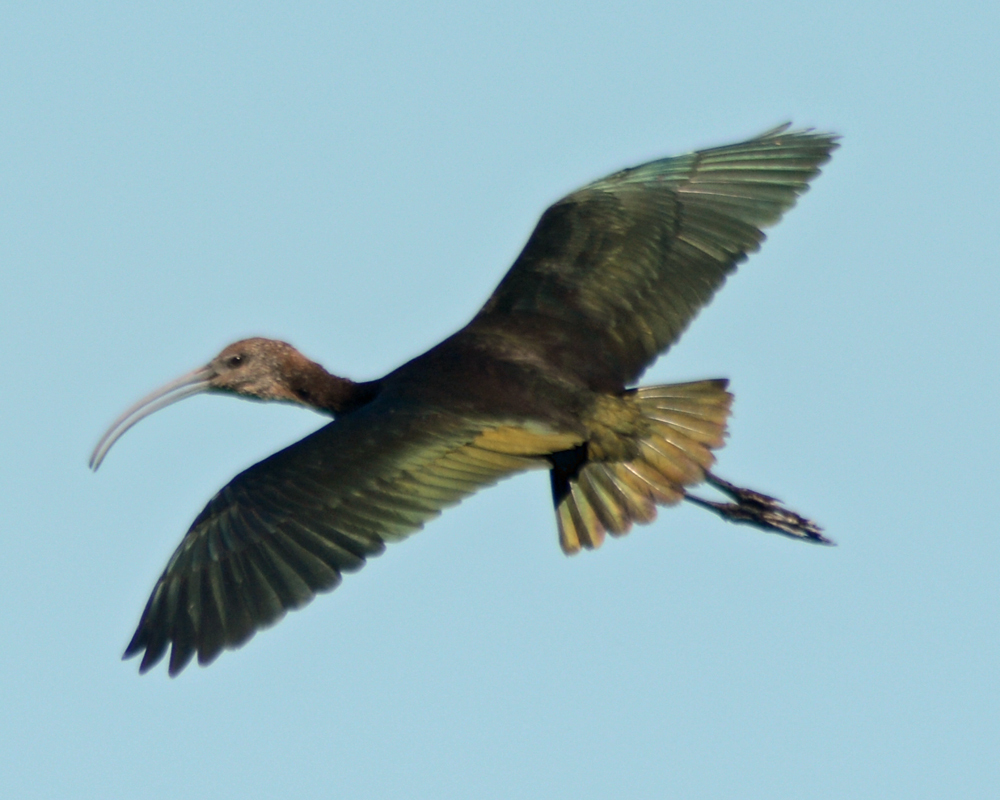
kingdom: Animalia
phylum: Chordata
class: Aves
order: Pelecaniformes
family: Threskiornithidae
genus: Plegadis
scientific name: Plegadis chihi
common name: White-faced ibis
